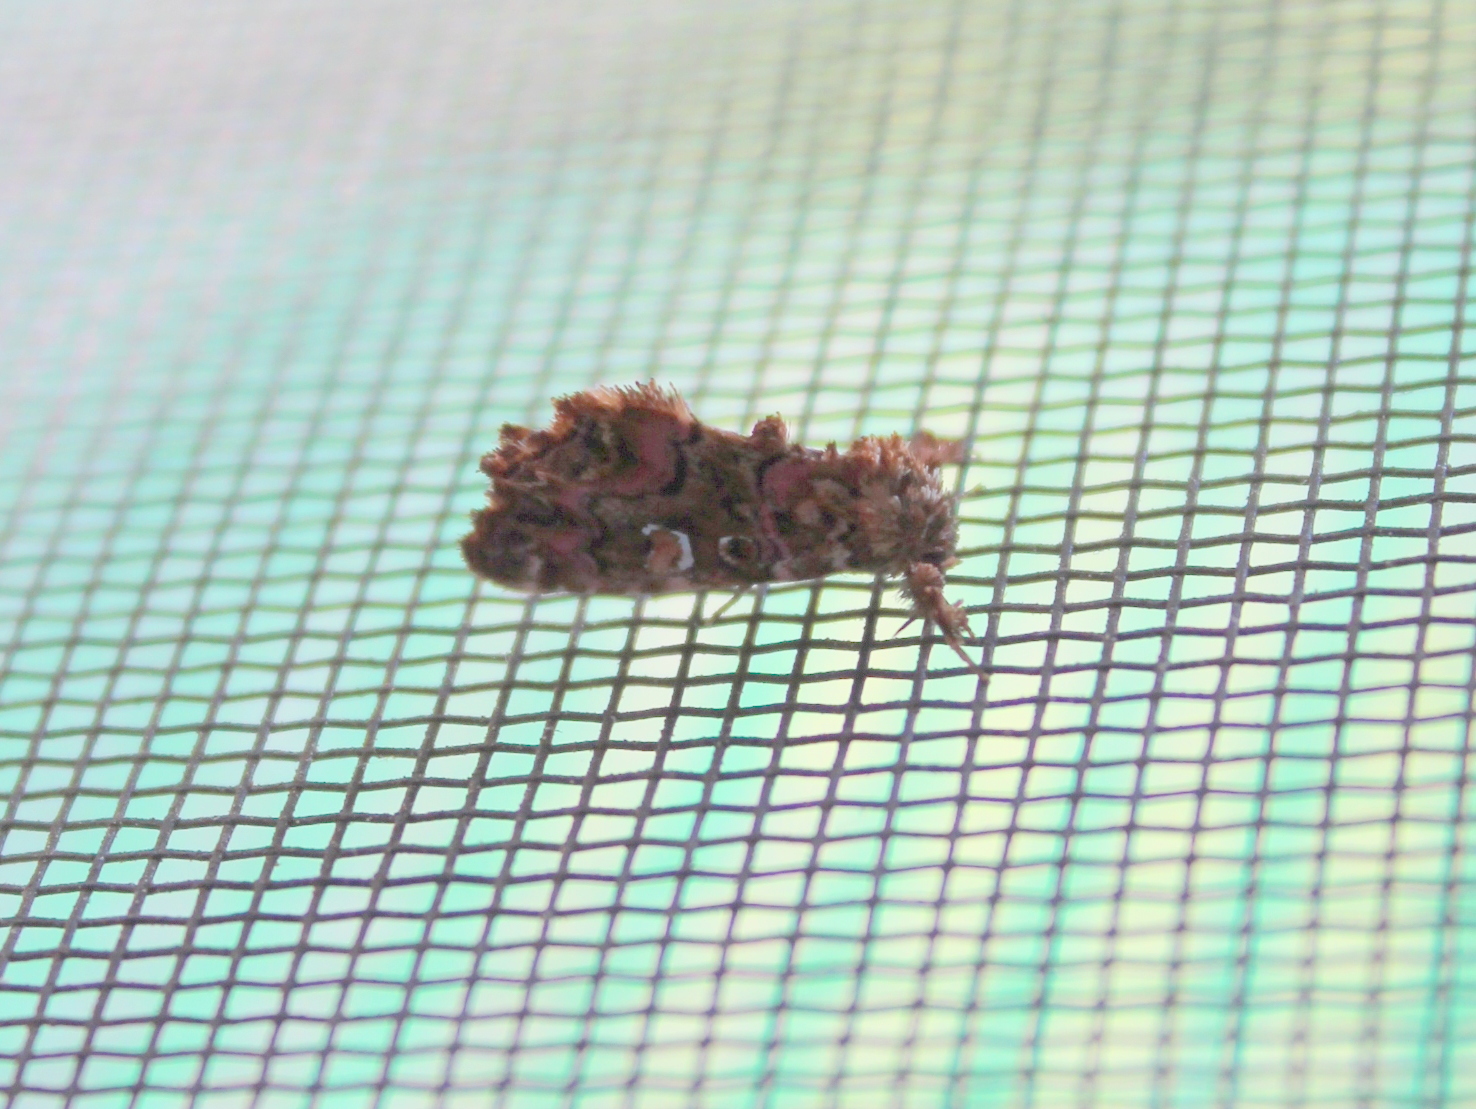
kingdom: Animalia
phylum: Arthropoda
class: Insecta
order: Lepidoptera
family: Noctuidae
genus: Callopistria
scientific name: Callopistria mollissima
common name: Pink-shaded fern moth
